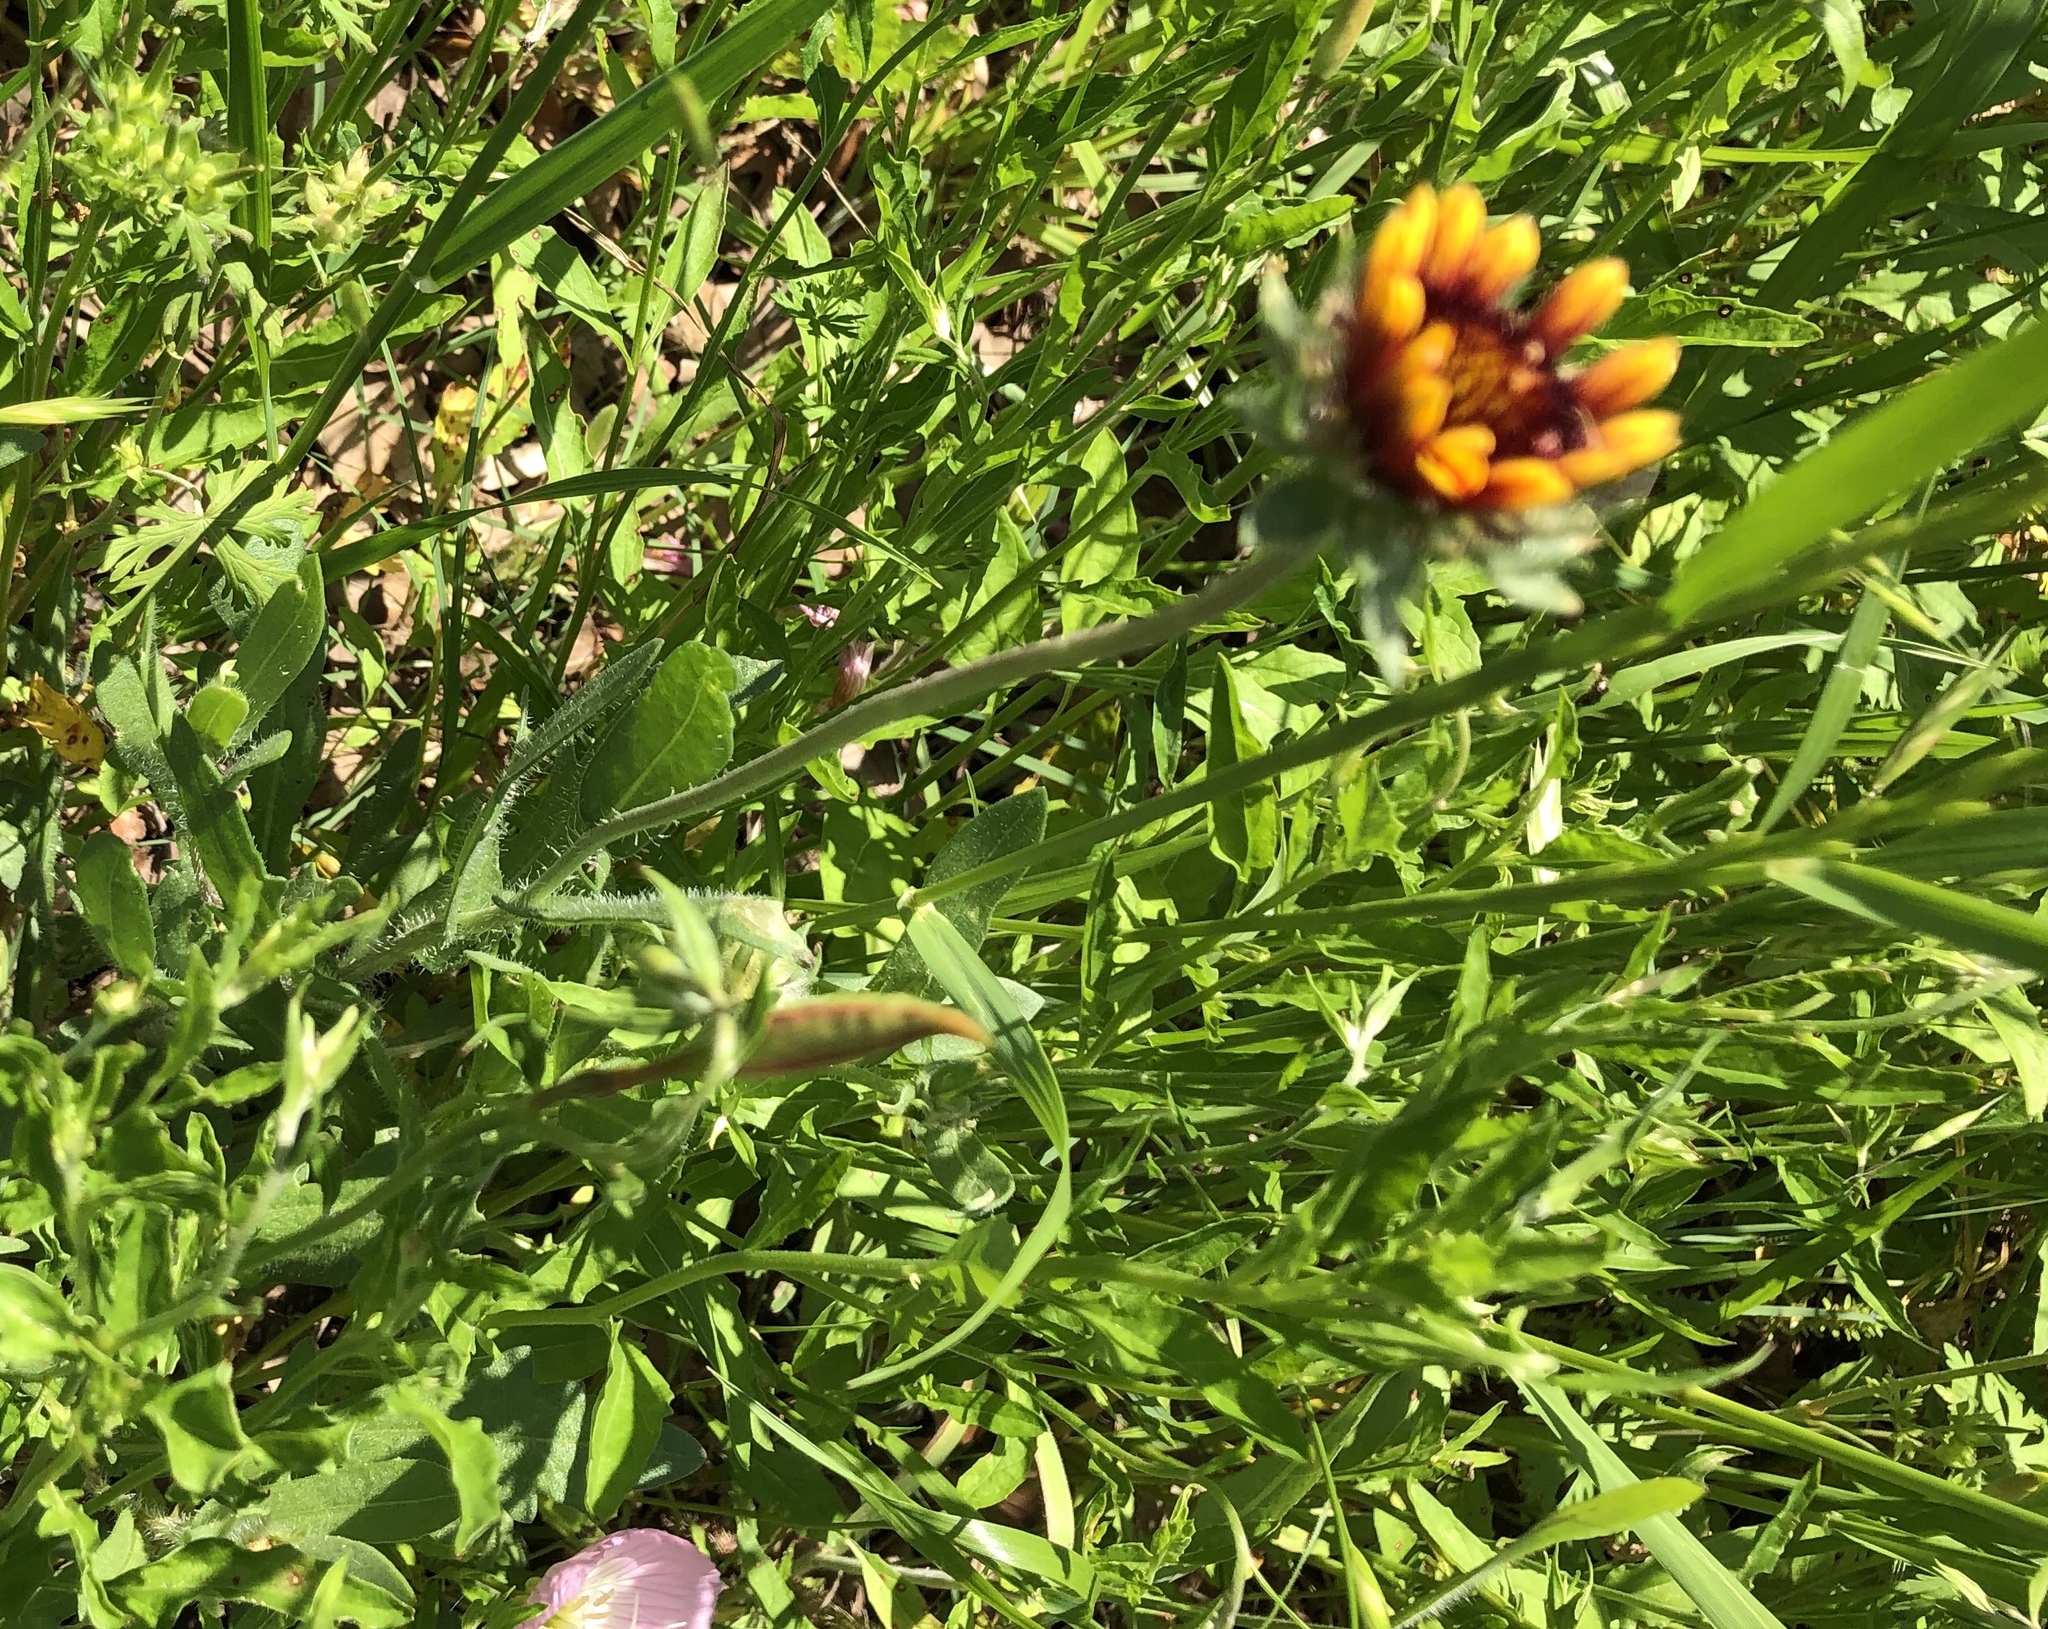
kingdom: Plantae
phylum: Tracheophyta
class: Magnoliopsida
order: Asterales
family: Asteraceae
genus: Gaillardia
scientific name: Gaillardia pulchella
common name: Firewheel
